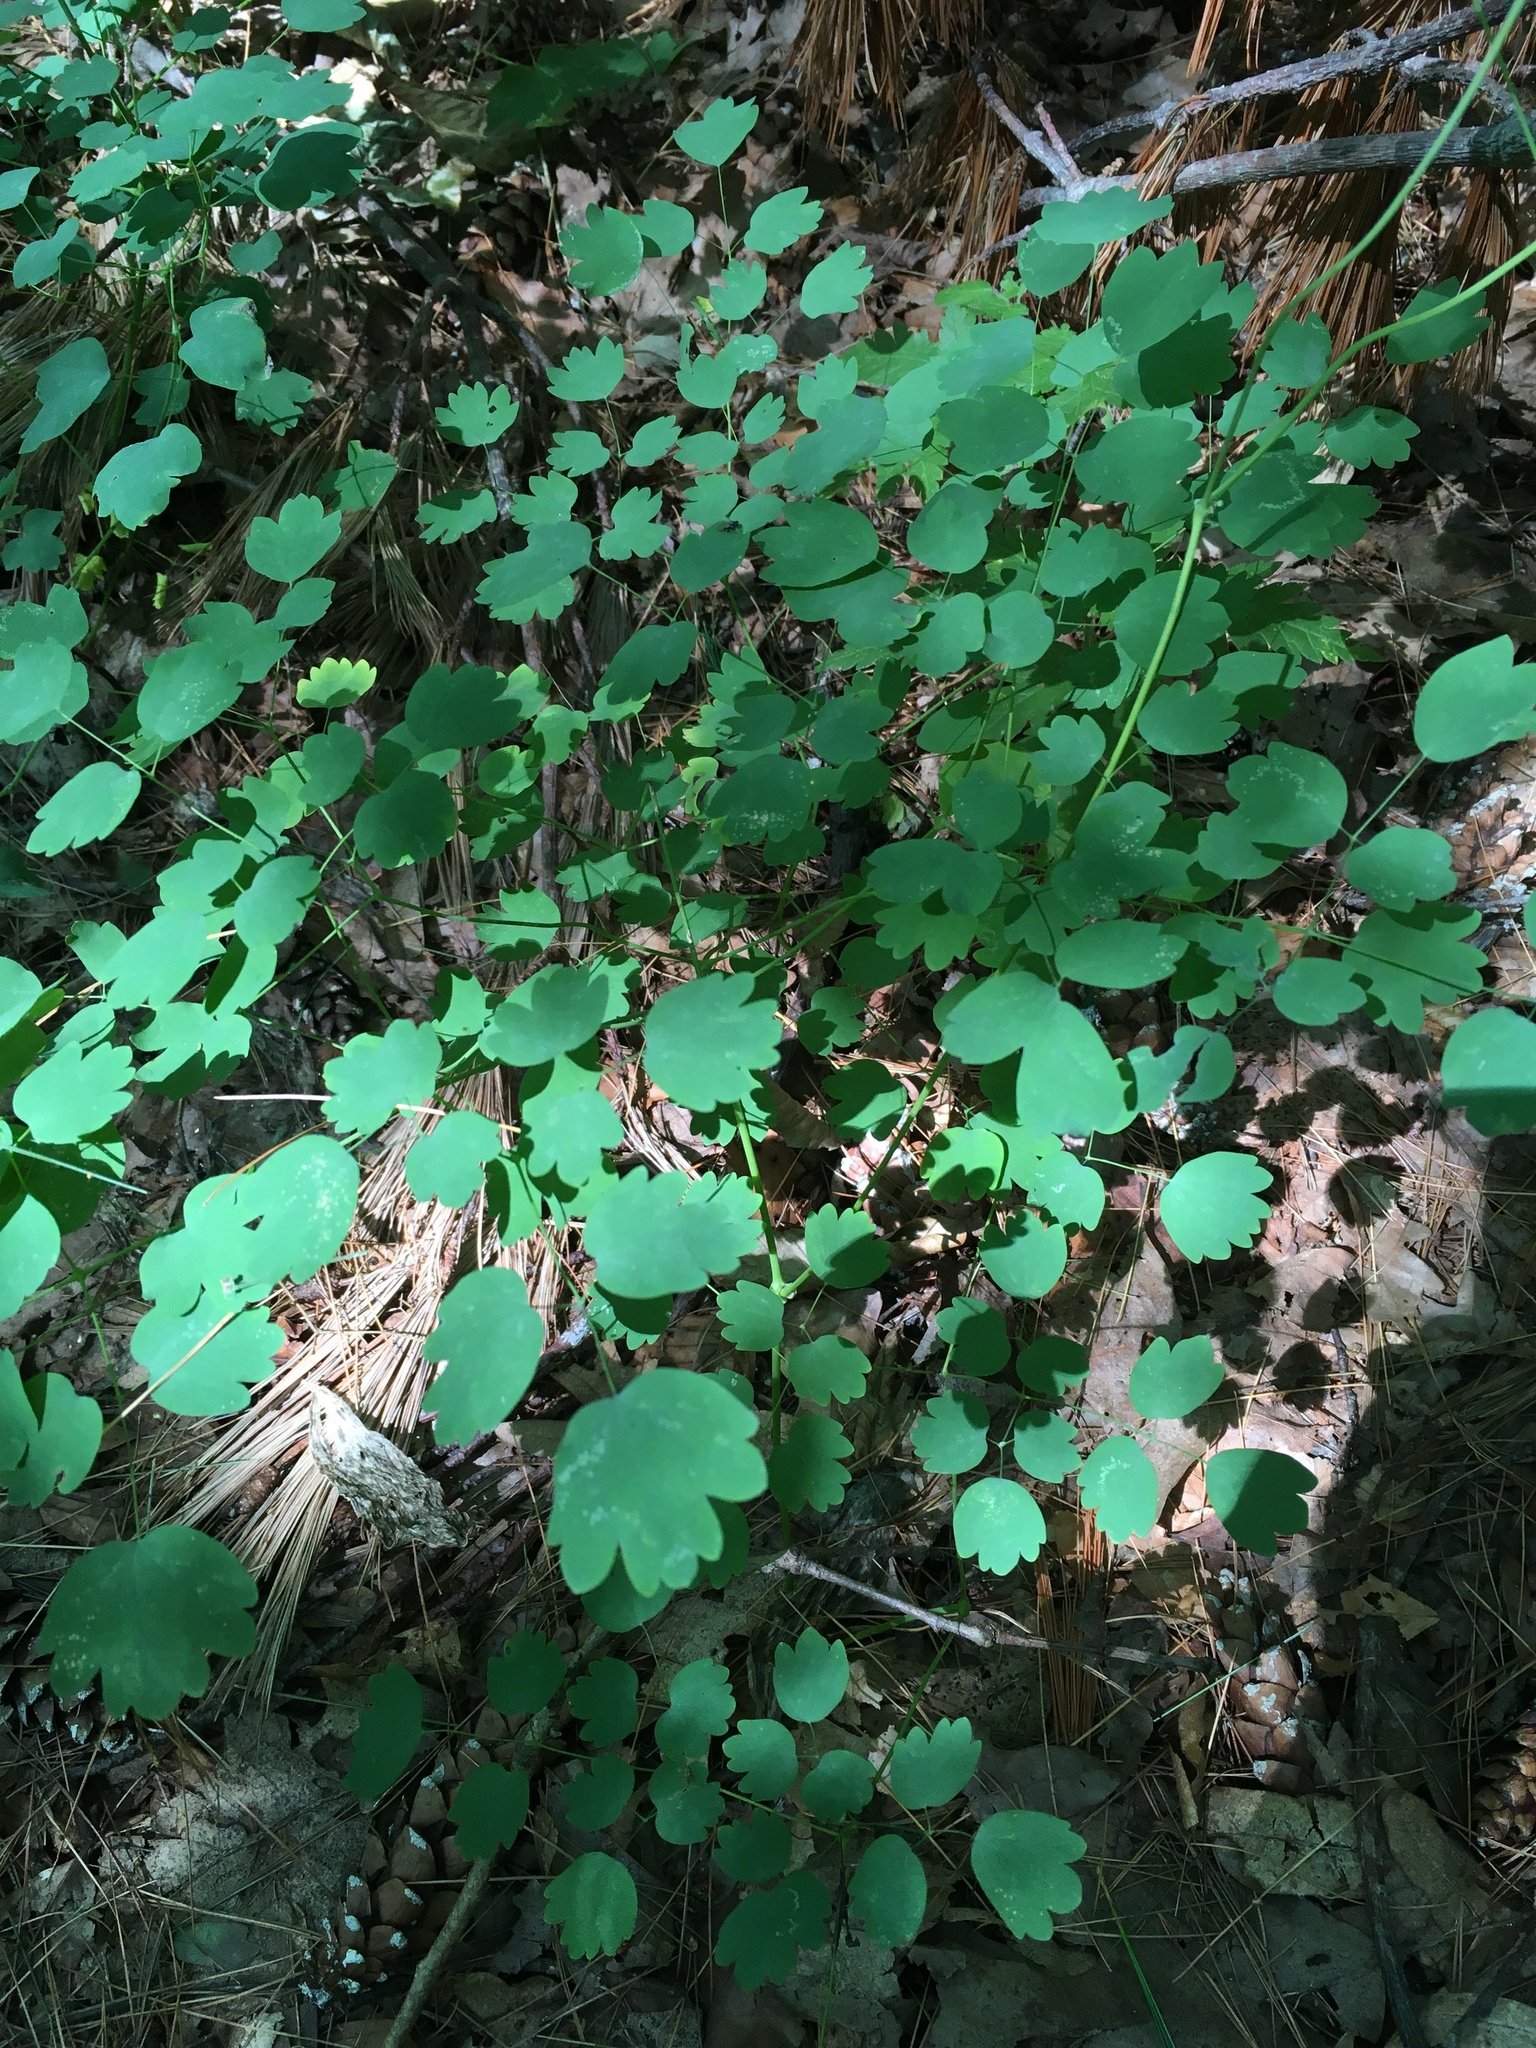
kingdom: Plantae
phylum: Tracheophyta
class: Magnoliopsida
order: Ranunculales
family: Ranunculaceae
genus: Thalictrum
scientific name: Thalictrum dioicum
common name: Early meadow-rue
